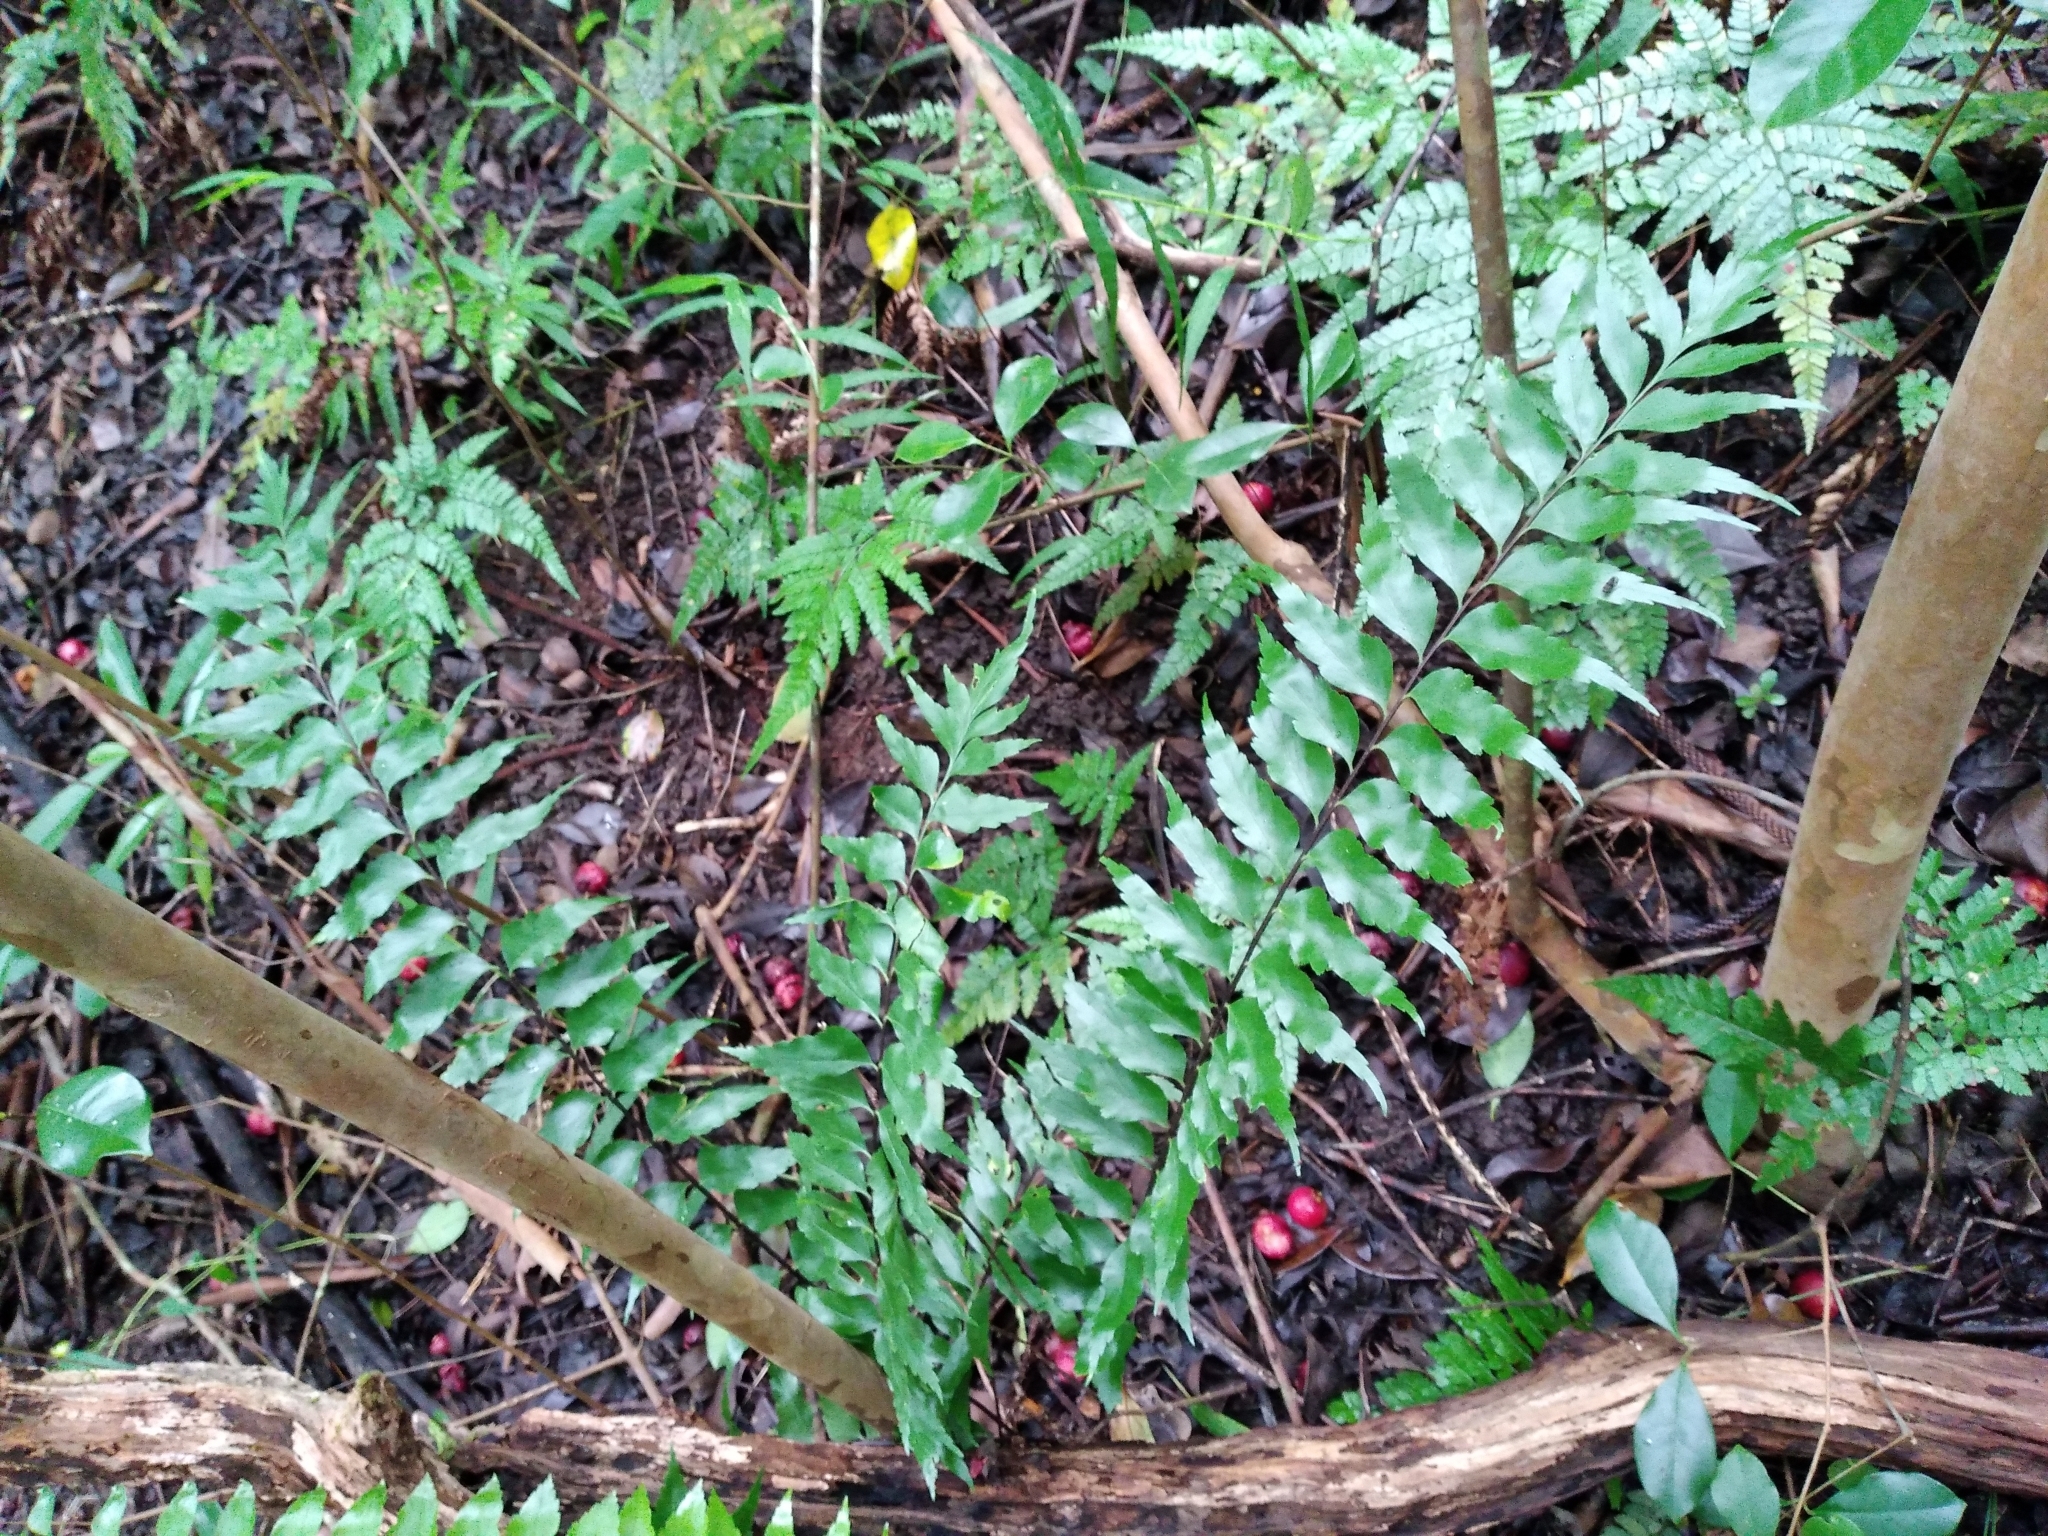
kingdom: Plantae
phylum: Tracheophyta
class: Polypodiopsida
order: Polypodiales
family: Aspleniaceae
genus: Asplenium
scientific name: Asplenium polyodon
